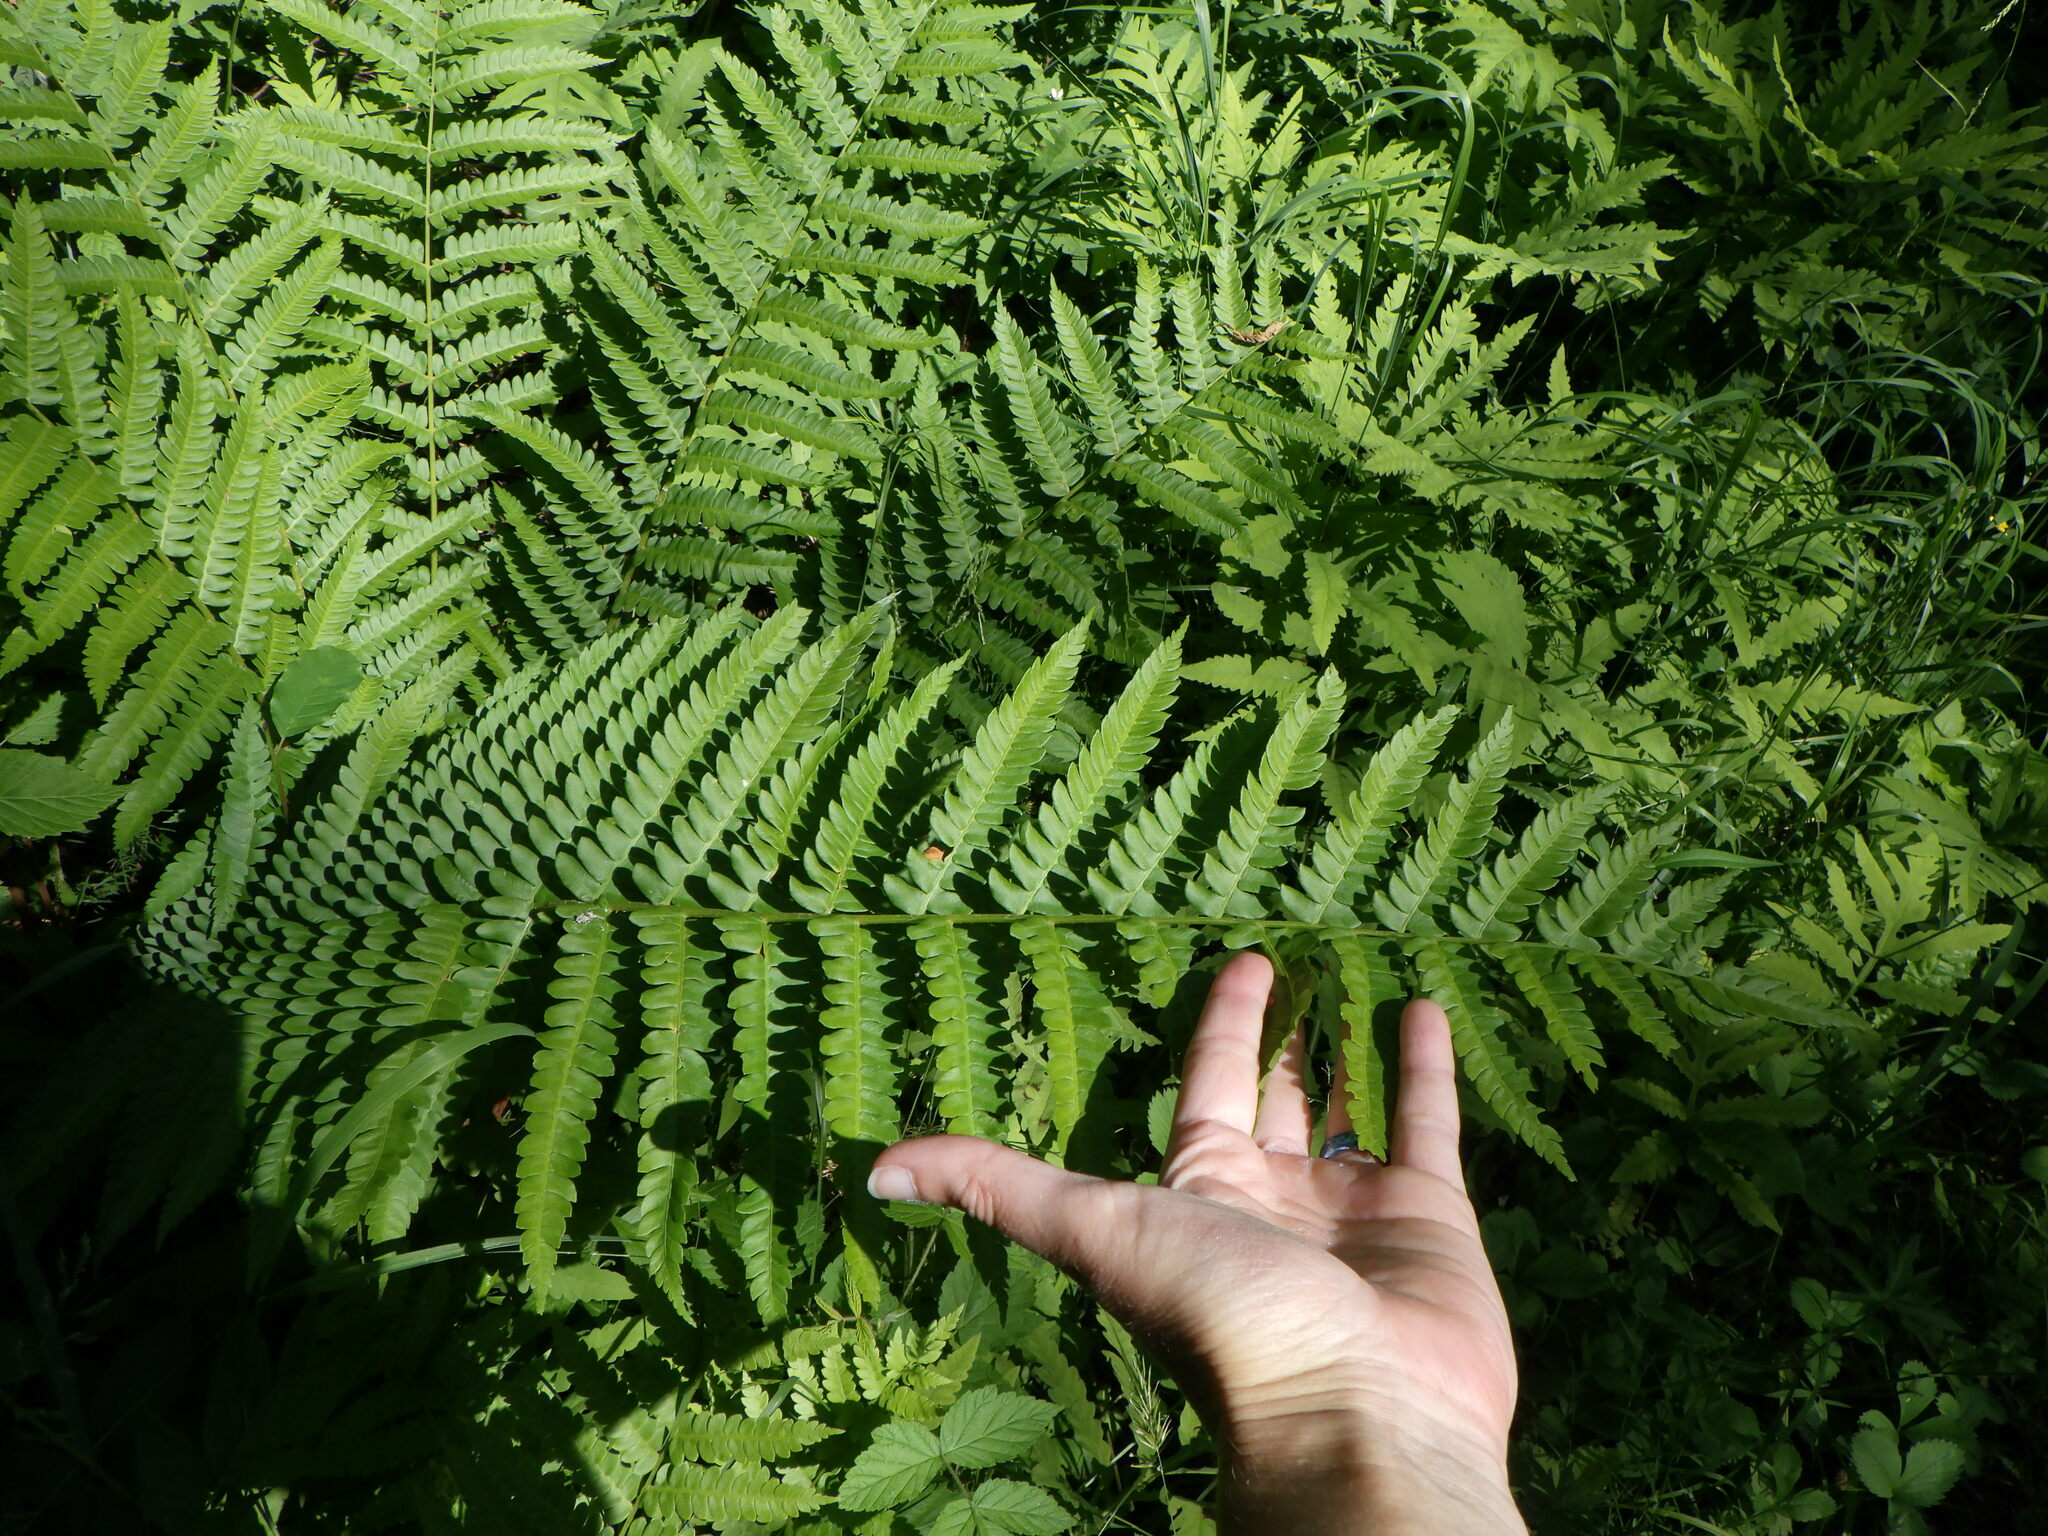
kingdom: Plantae
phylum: Tracheophyta
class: Polypodiopsida
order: Osmundales
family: Osmundaceae
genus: Osmundastrum
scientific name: Osmundastrum cinnamomeum
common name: Cinnamon fern
